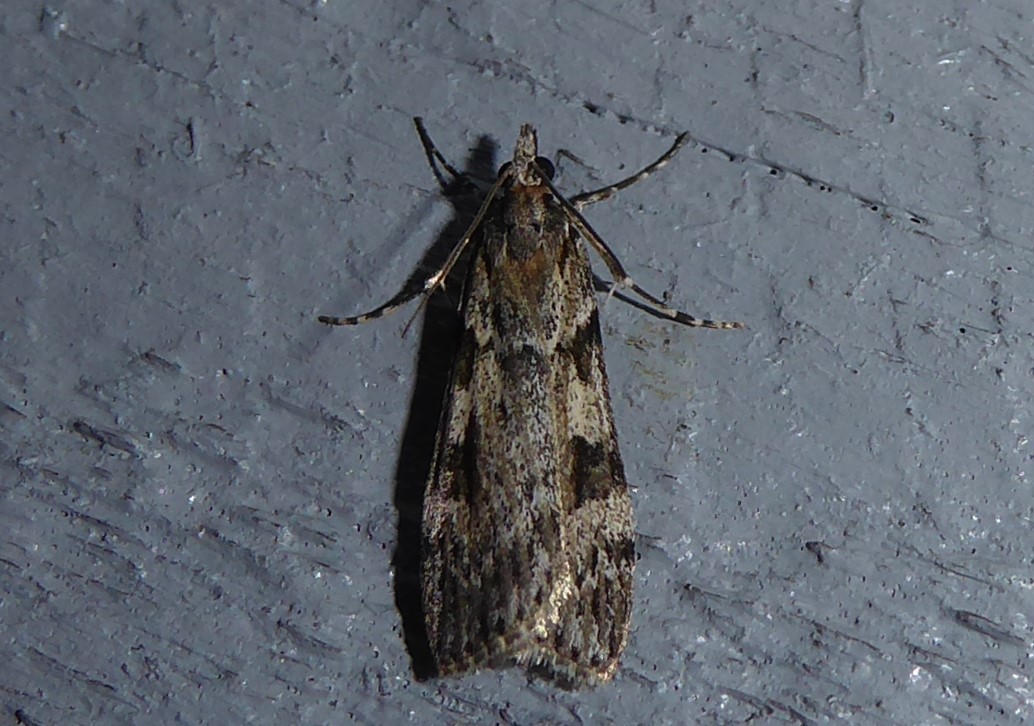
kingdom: Animalia
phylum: Arthropoda
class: Insecta
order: Lepidoptera
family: Crambidae
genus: Scoparia
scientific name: Scoparia halopis
